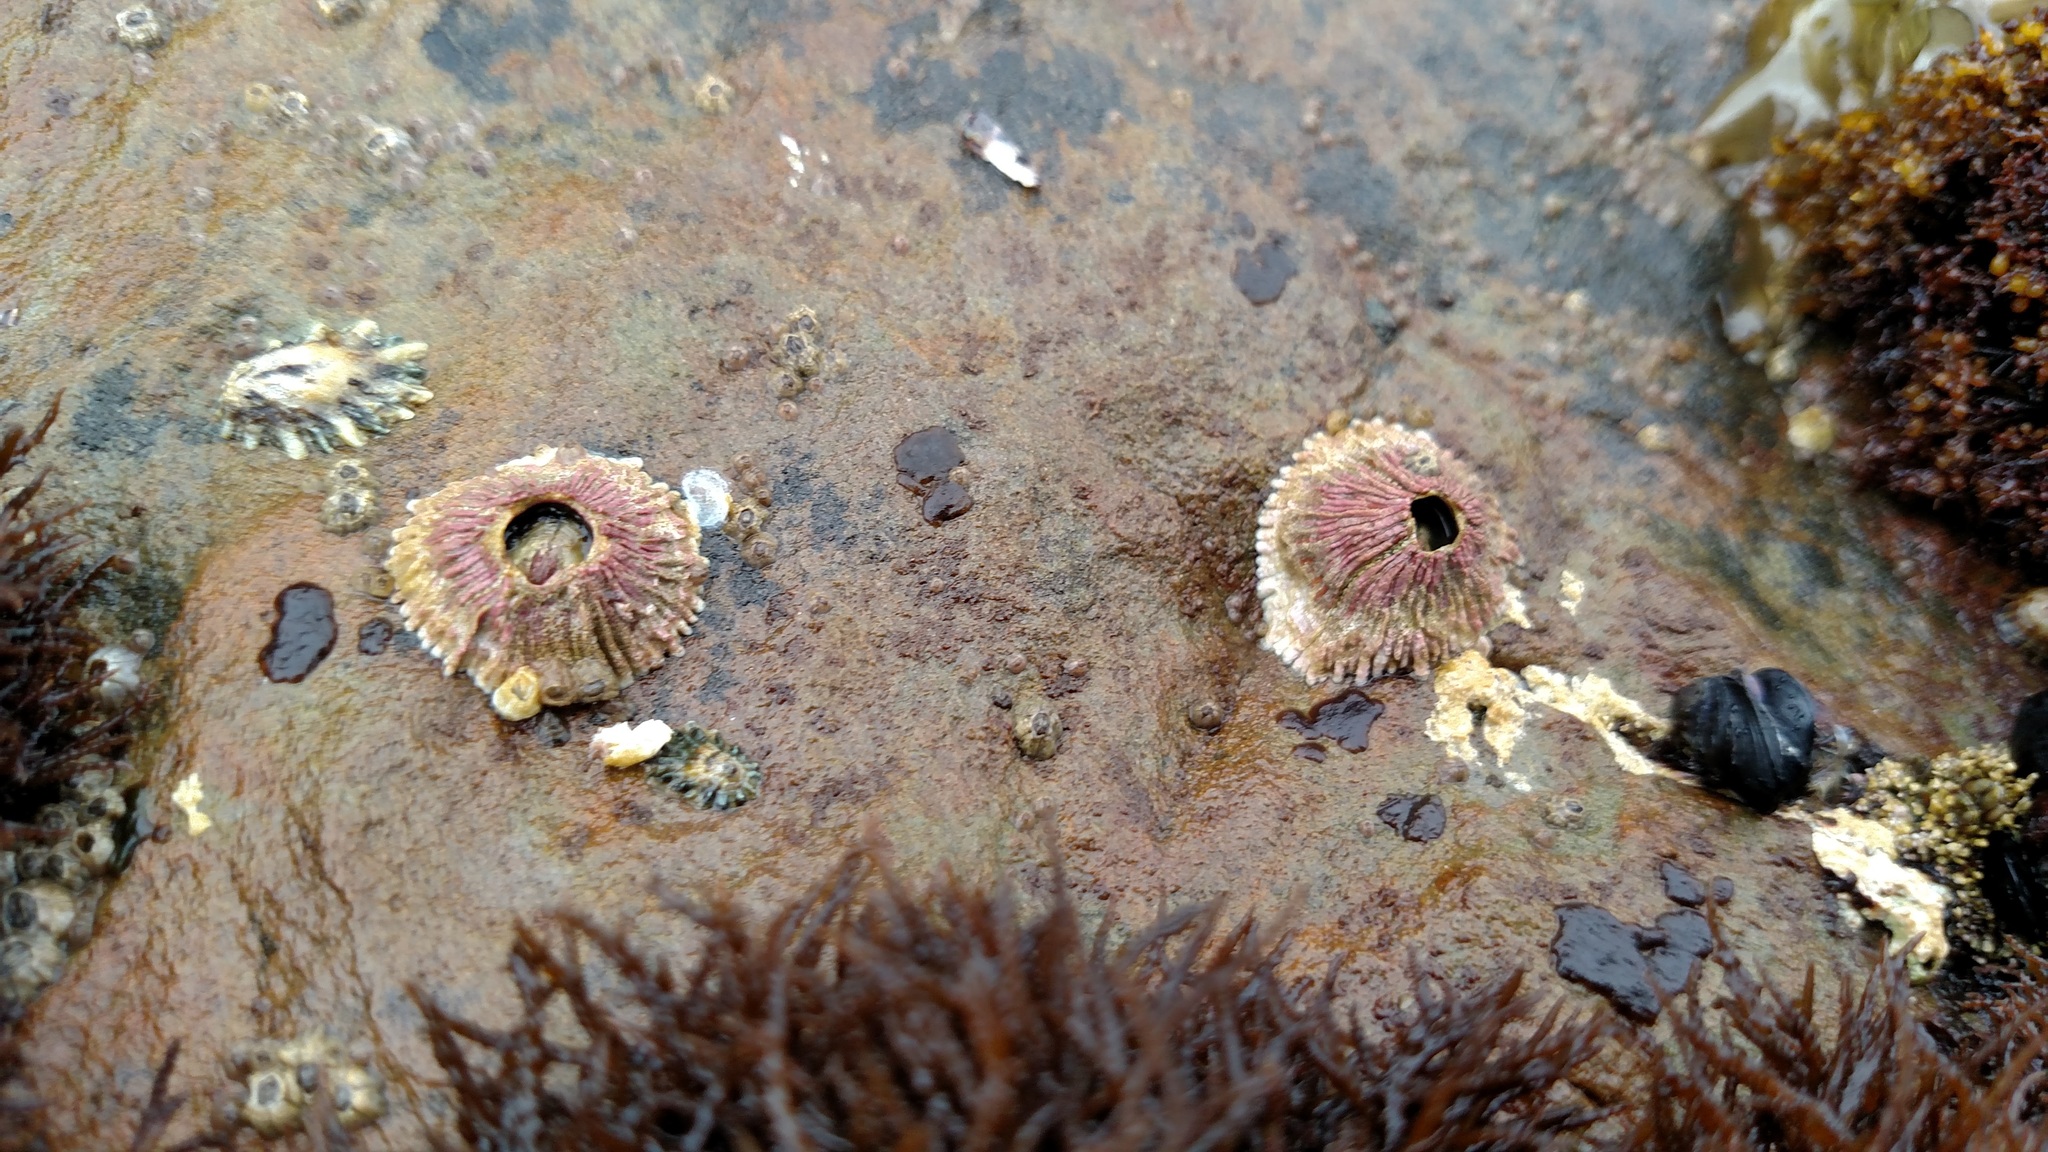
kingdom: Animalia
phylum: Arthropoda
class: Maxillopoda
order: Sessilia
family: Tetraclitidae
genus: Tetraclita
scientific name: Tetraclita rubescens
